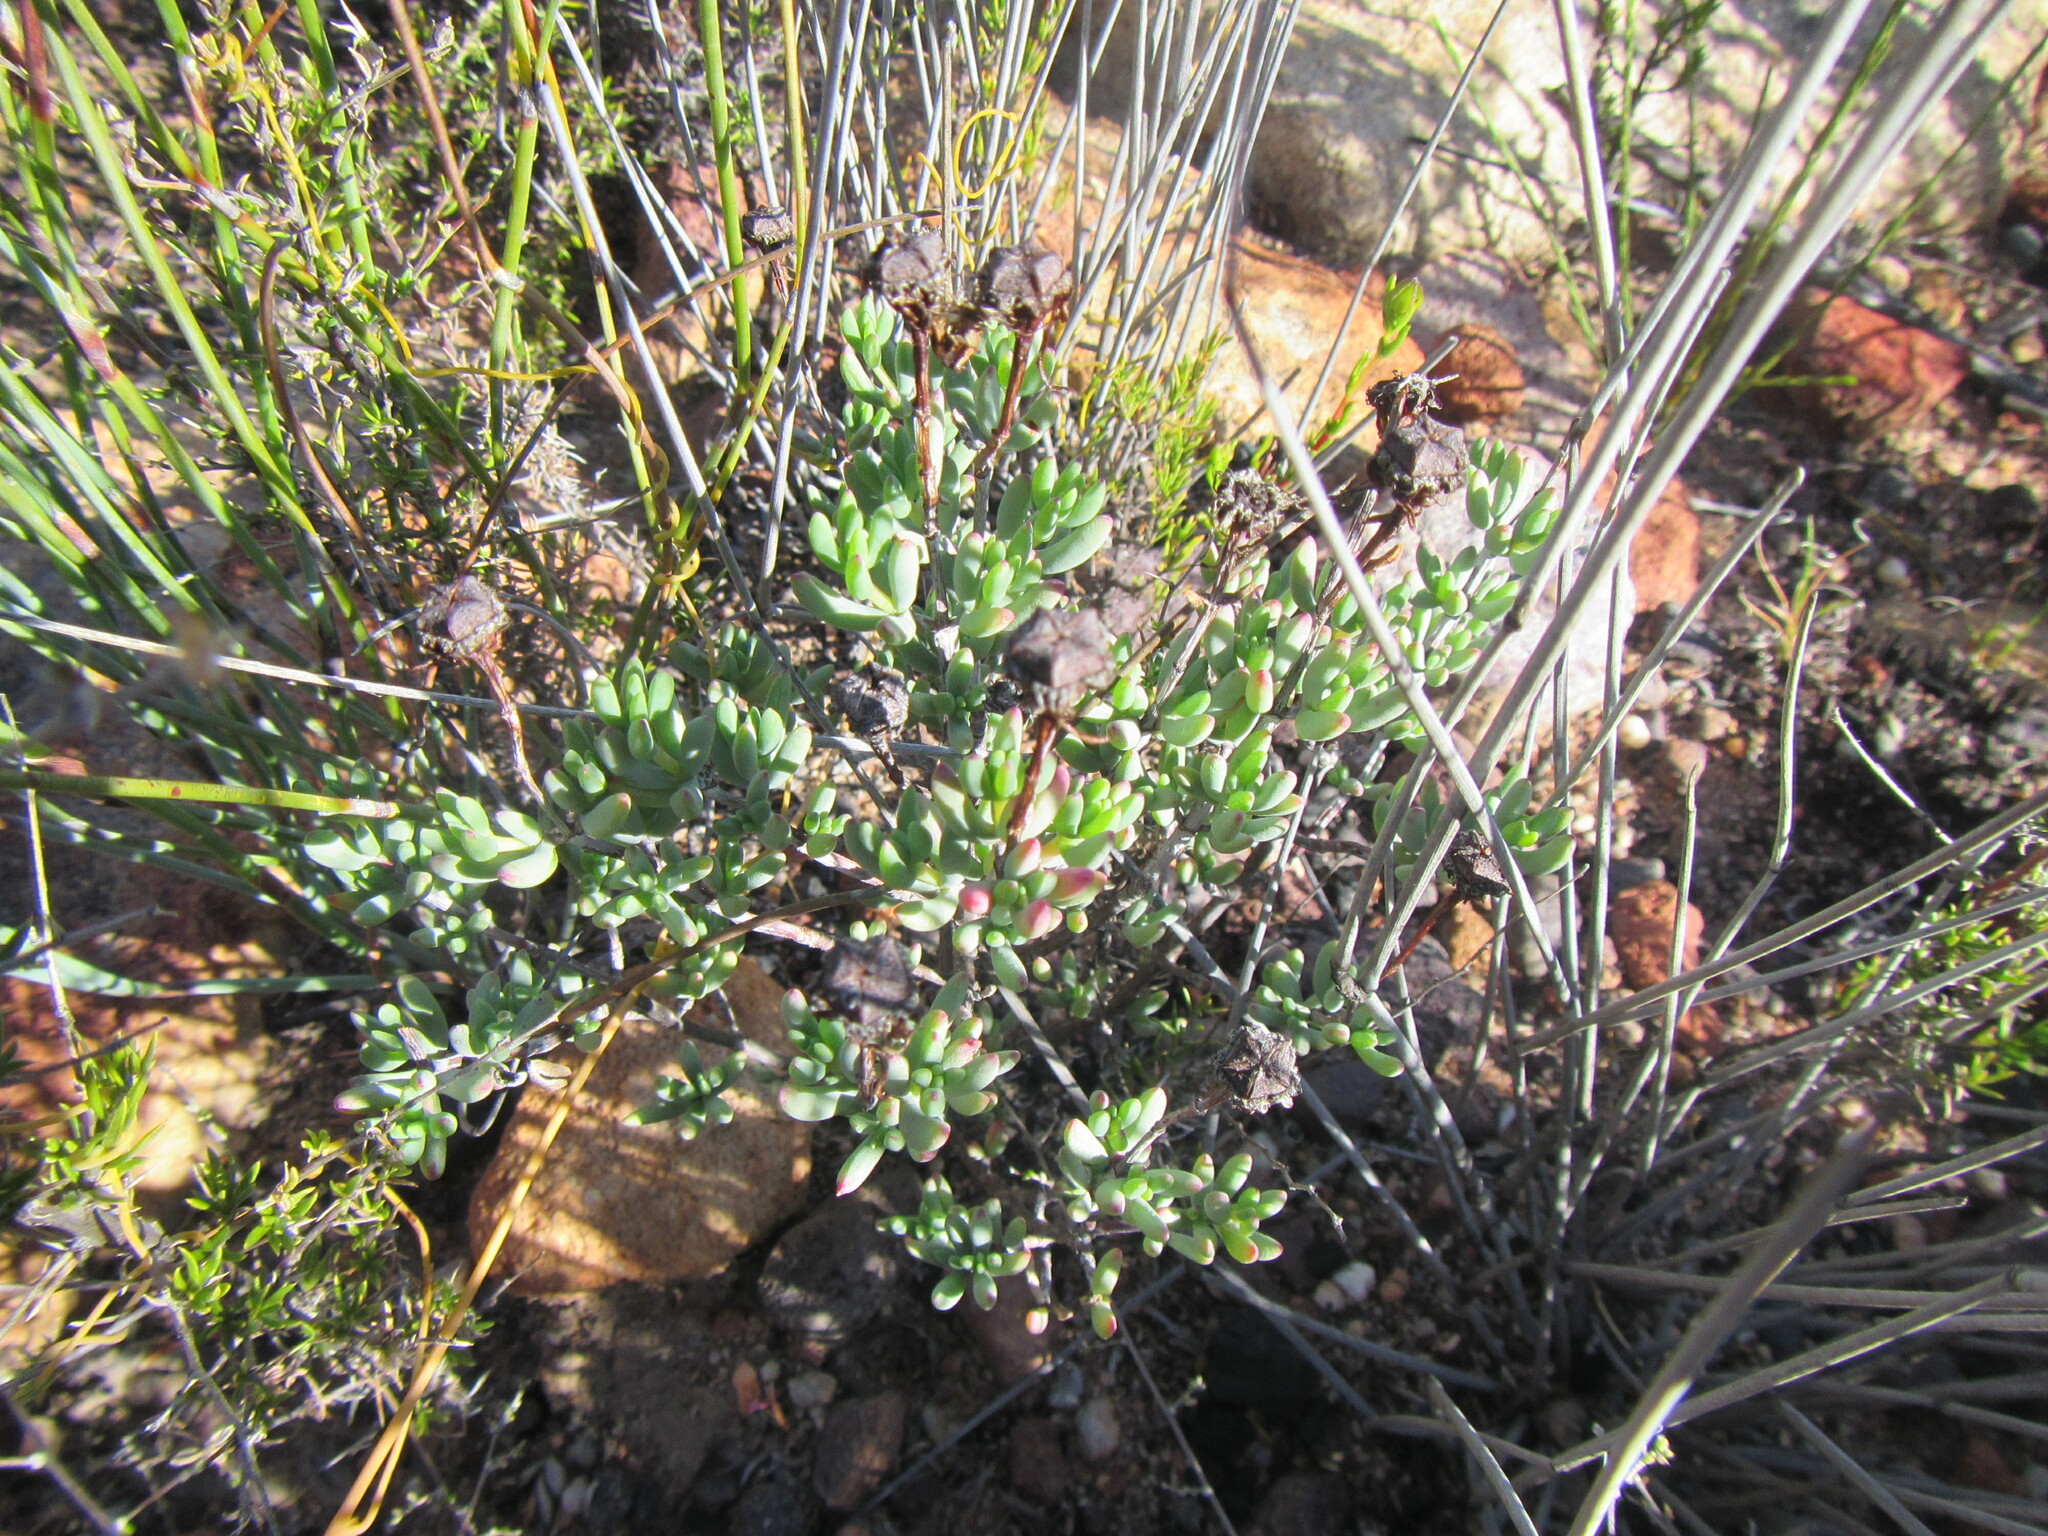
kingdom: Plantae
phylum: Tracheophyta
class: Magnoliopsida
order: Caryophyllales
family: Aizoaceae
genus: Lampranthus
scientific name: Lampranthus falcatus
